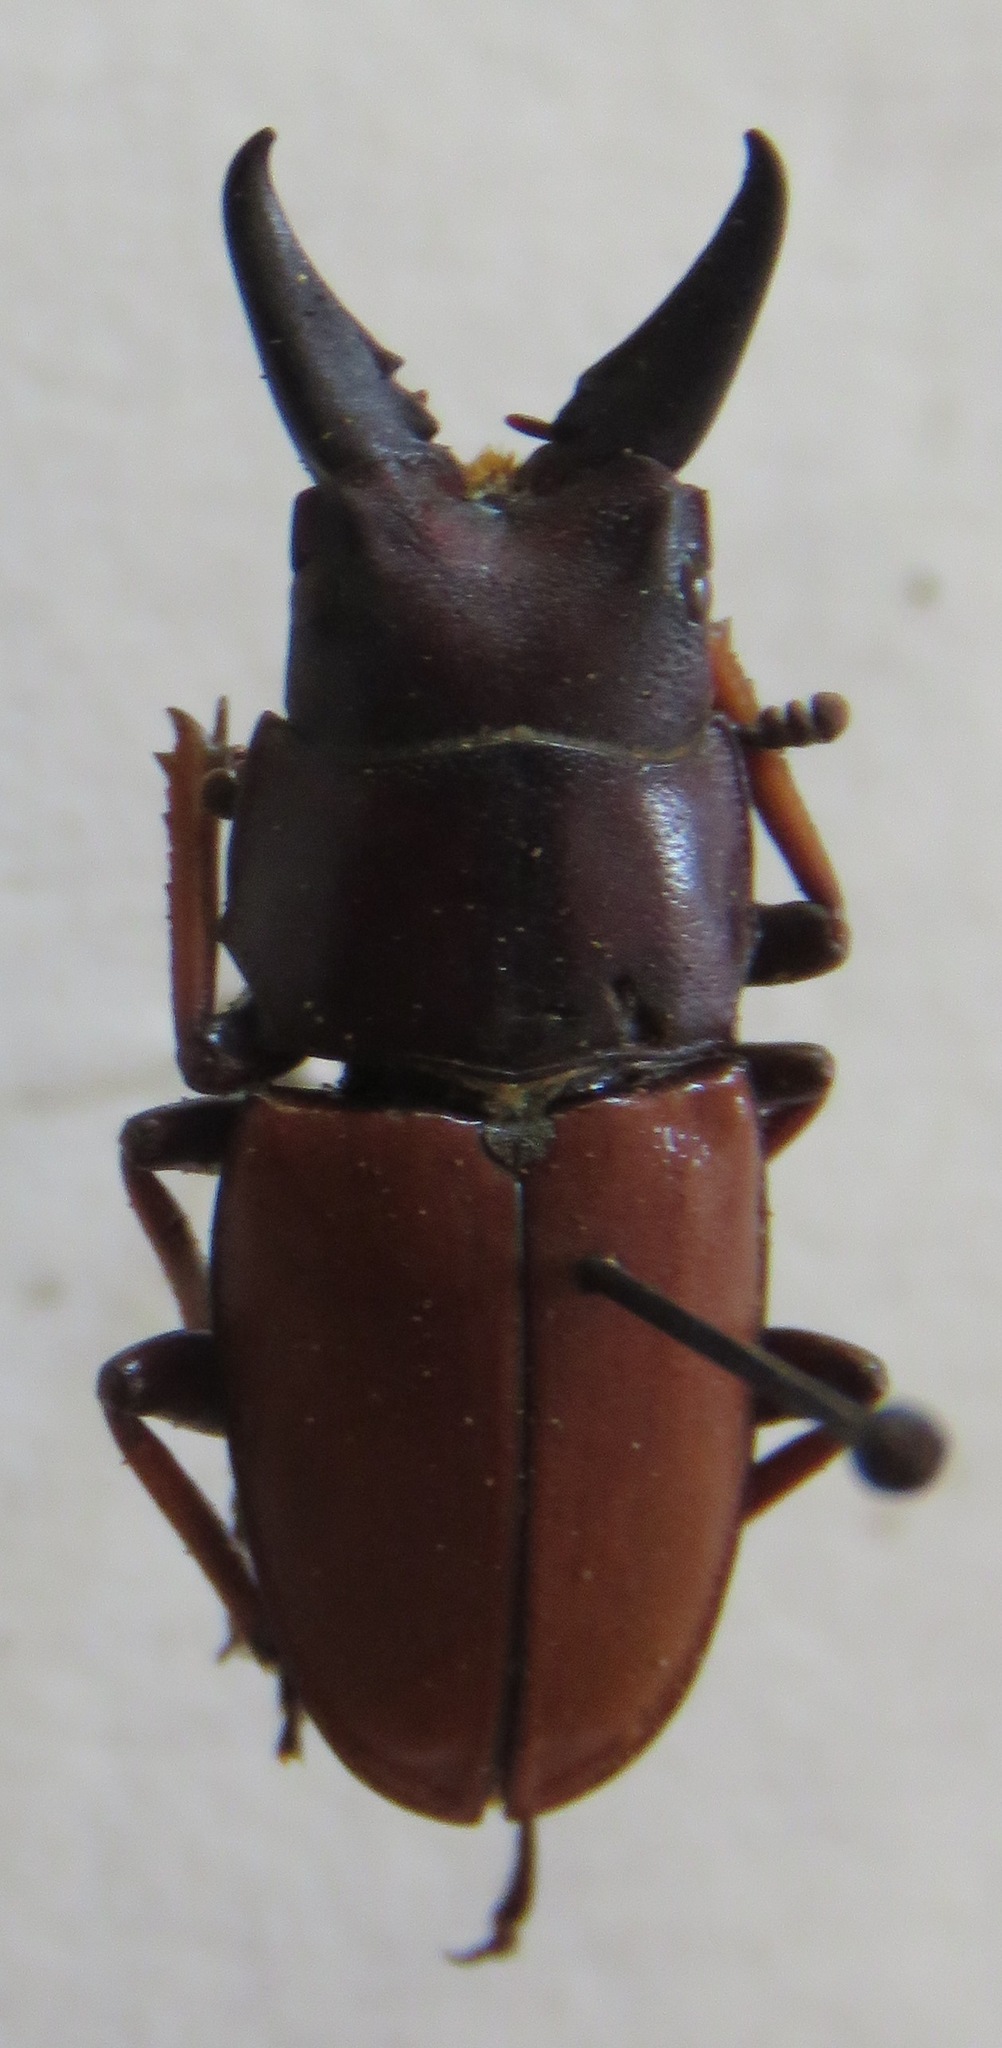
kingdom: Animalia
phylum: Arthropoda
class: Insecta
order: Coleoptera
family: Lucanidae
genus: Leptinopterus
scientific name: Leptinopterus tibialis
